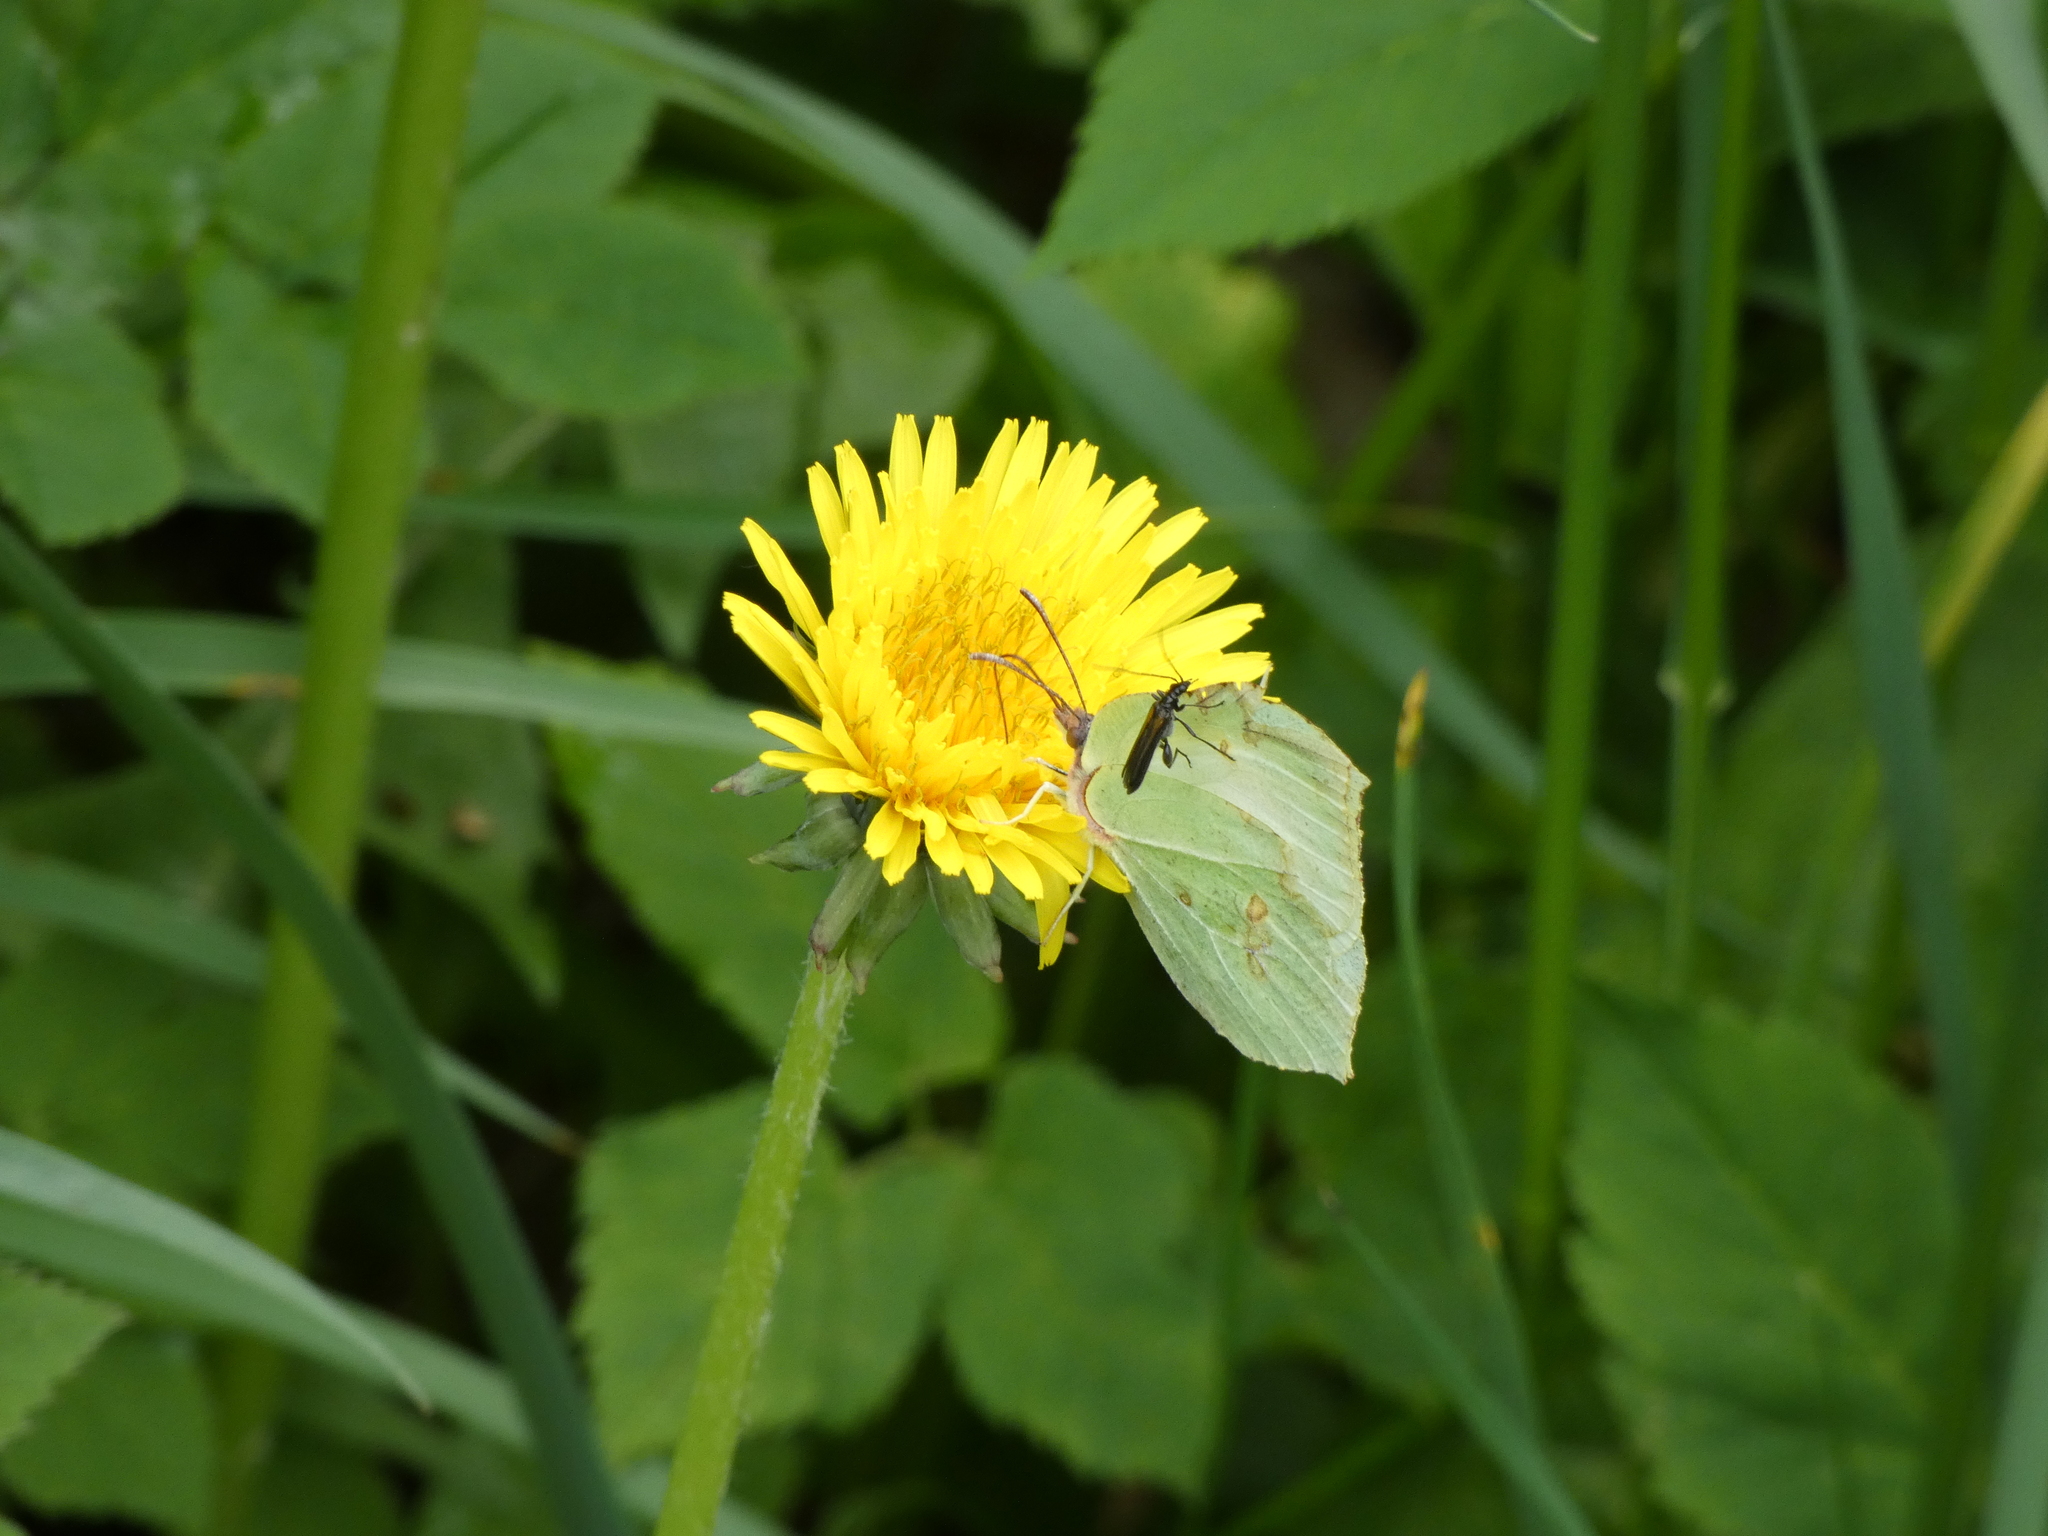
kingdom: Animalia
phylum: Arthropoda
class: Insecta
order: Lepidoptera
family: Pieridae
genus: Gonepteryx
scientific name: Gonepteryx rhamni
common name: Brimstone
